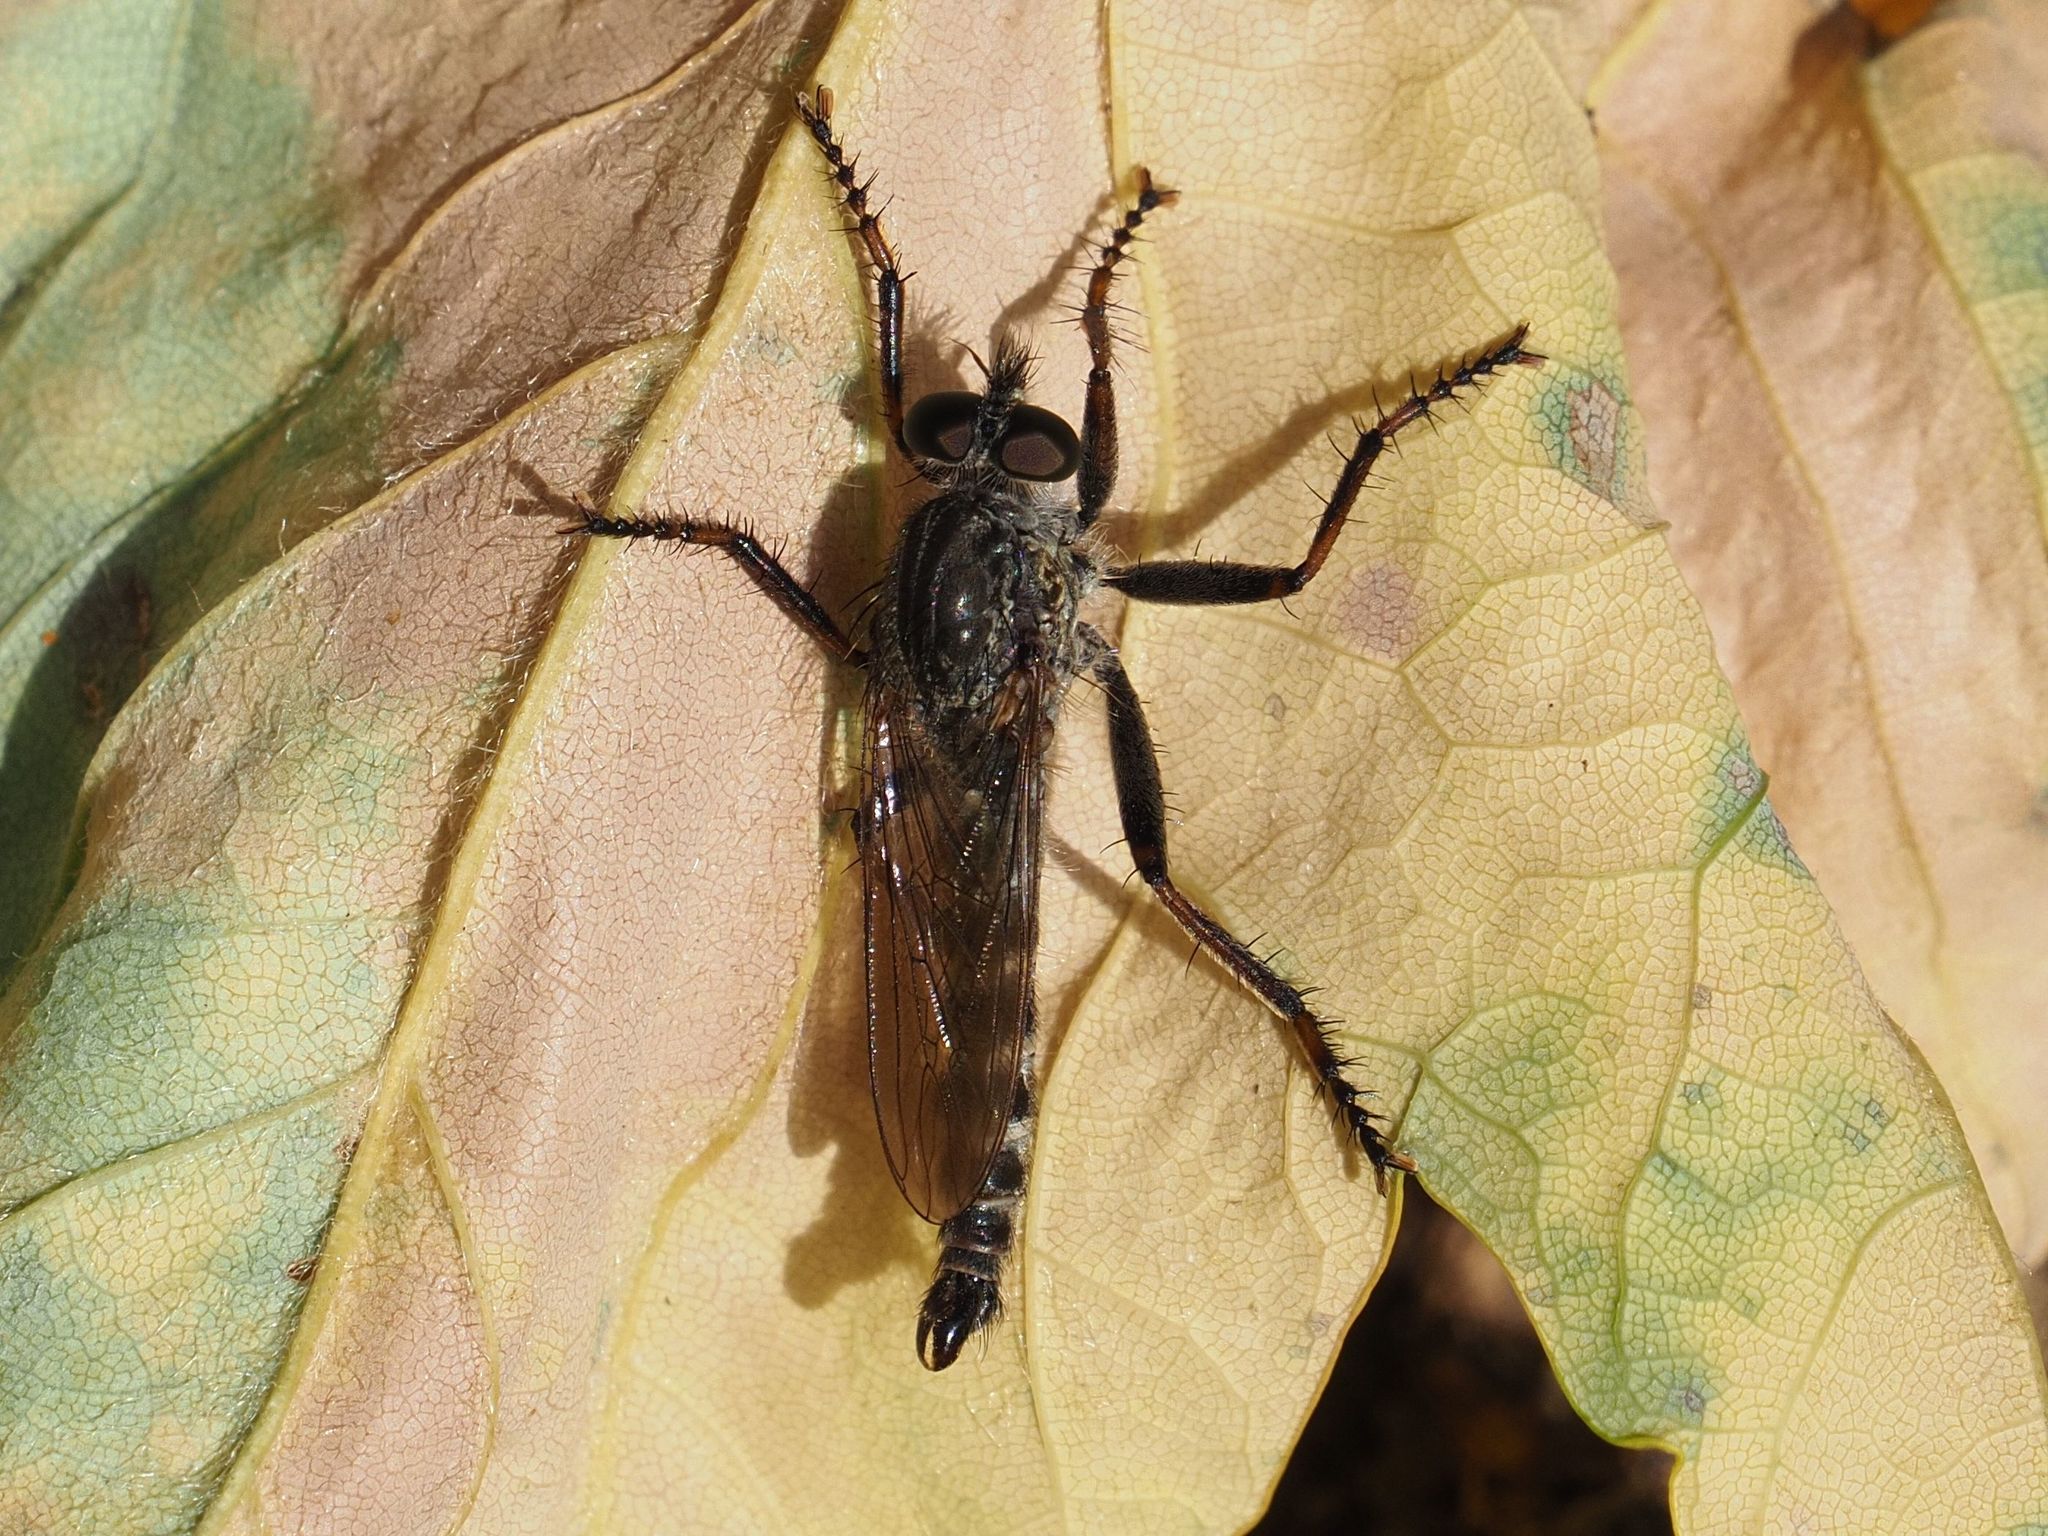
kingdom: Animalia
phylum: Arthropoda
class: Insecta
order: Diptera
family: Asilidae
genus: Machimus
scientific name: Machimus atricapillus
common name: Kite-tailed robberfly
